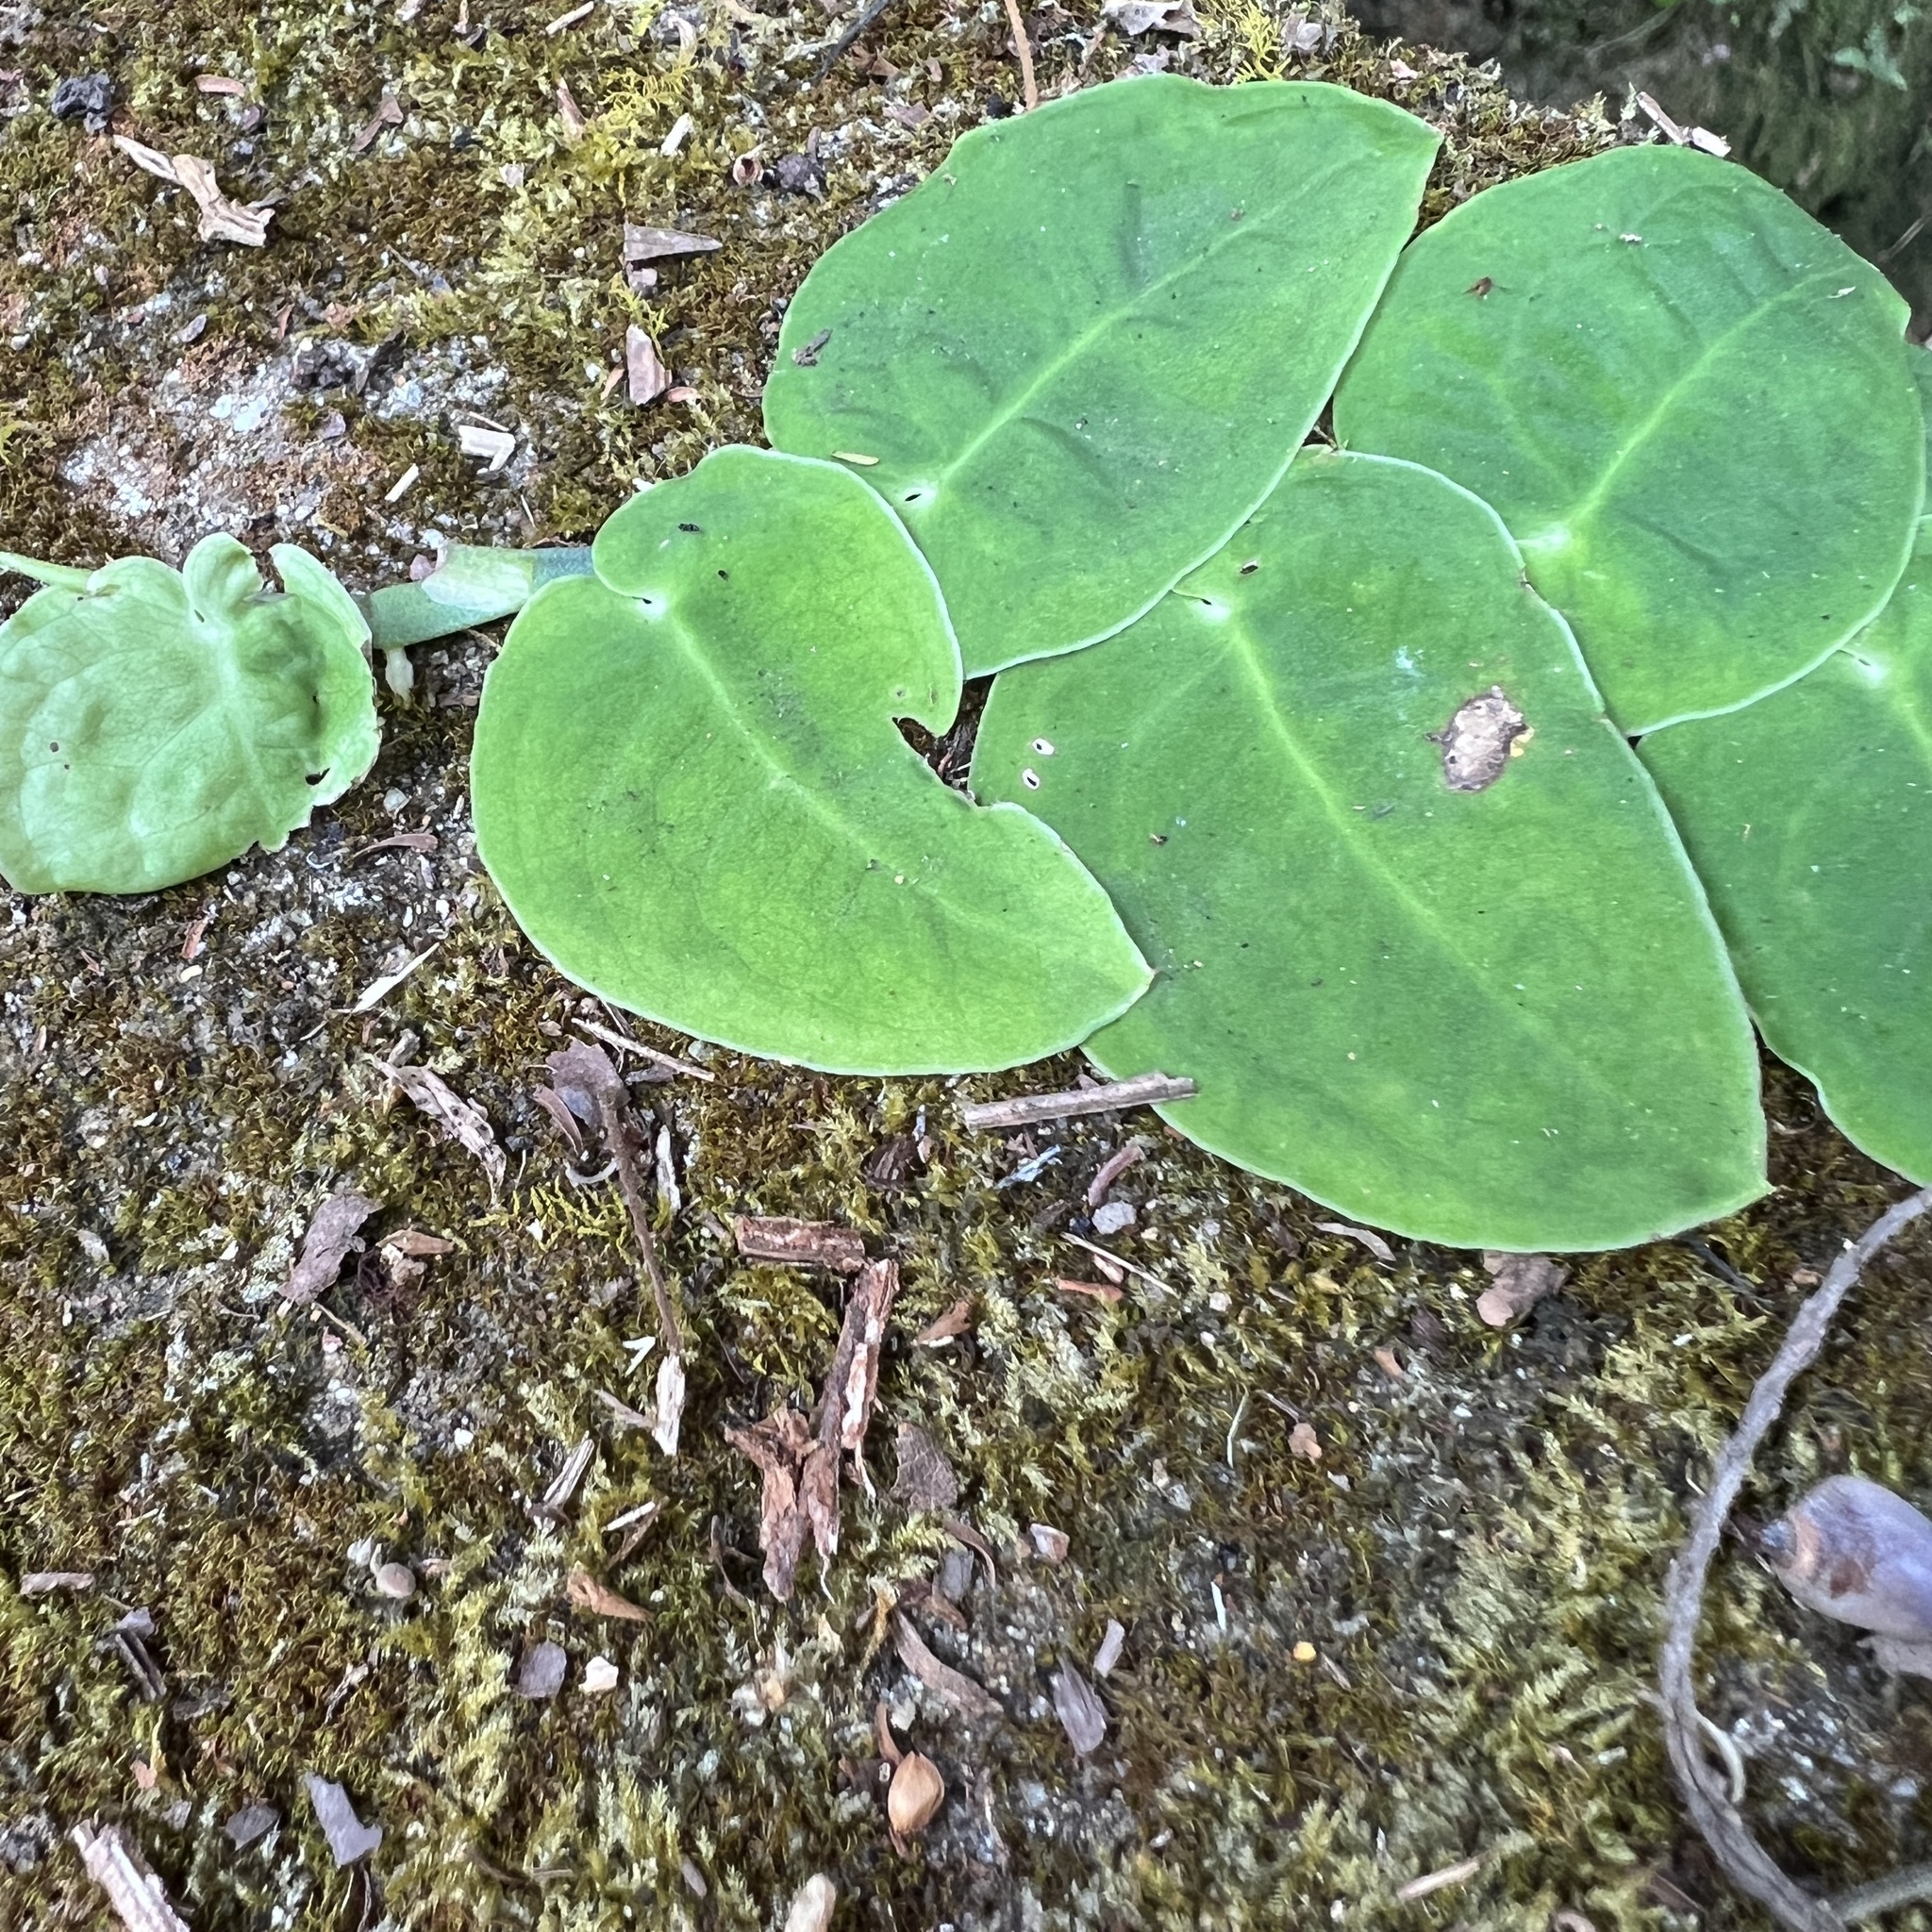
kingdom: Plantae
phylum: Tracheophyta
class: Liliopsida
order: Alismatales
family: Araceae
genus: Monstera
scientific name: Monstera dubia
